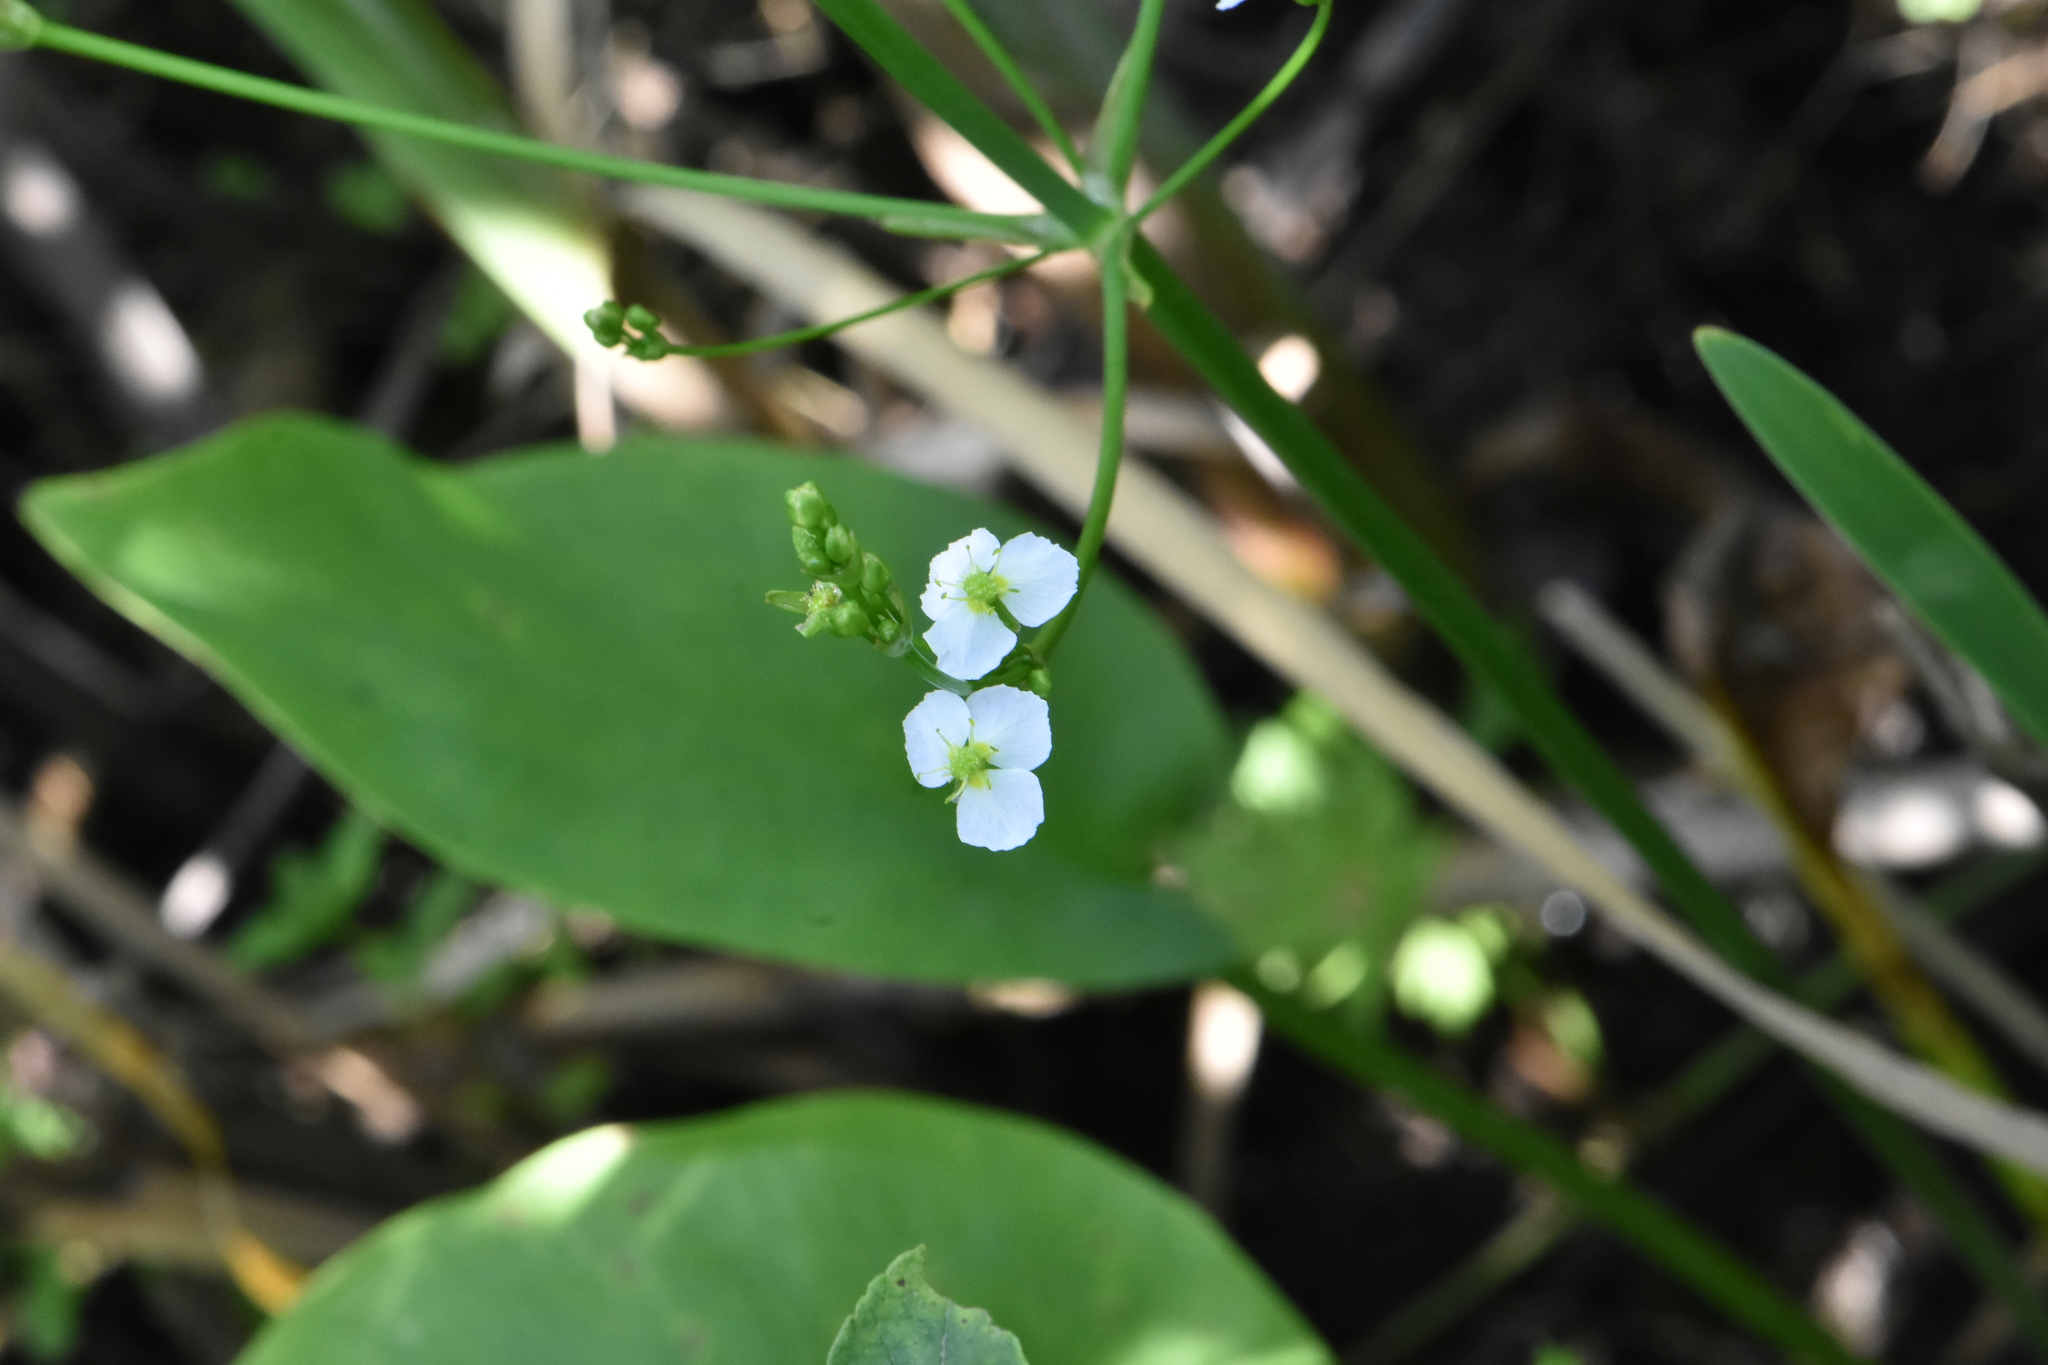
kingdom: Plantae
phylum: Tracheophyta
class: Liliopsida
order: Alismatales
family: Alismataceae
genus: Alisma
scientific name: Alisma plantago-aquatica
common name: Water-plantain
